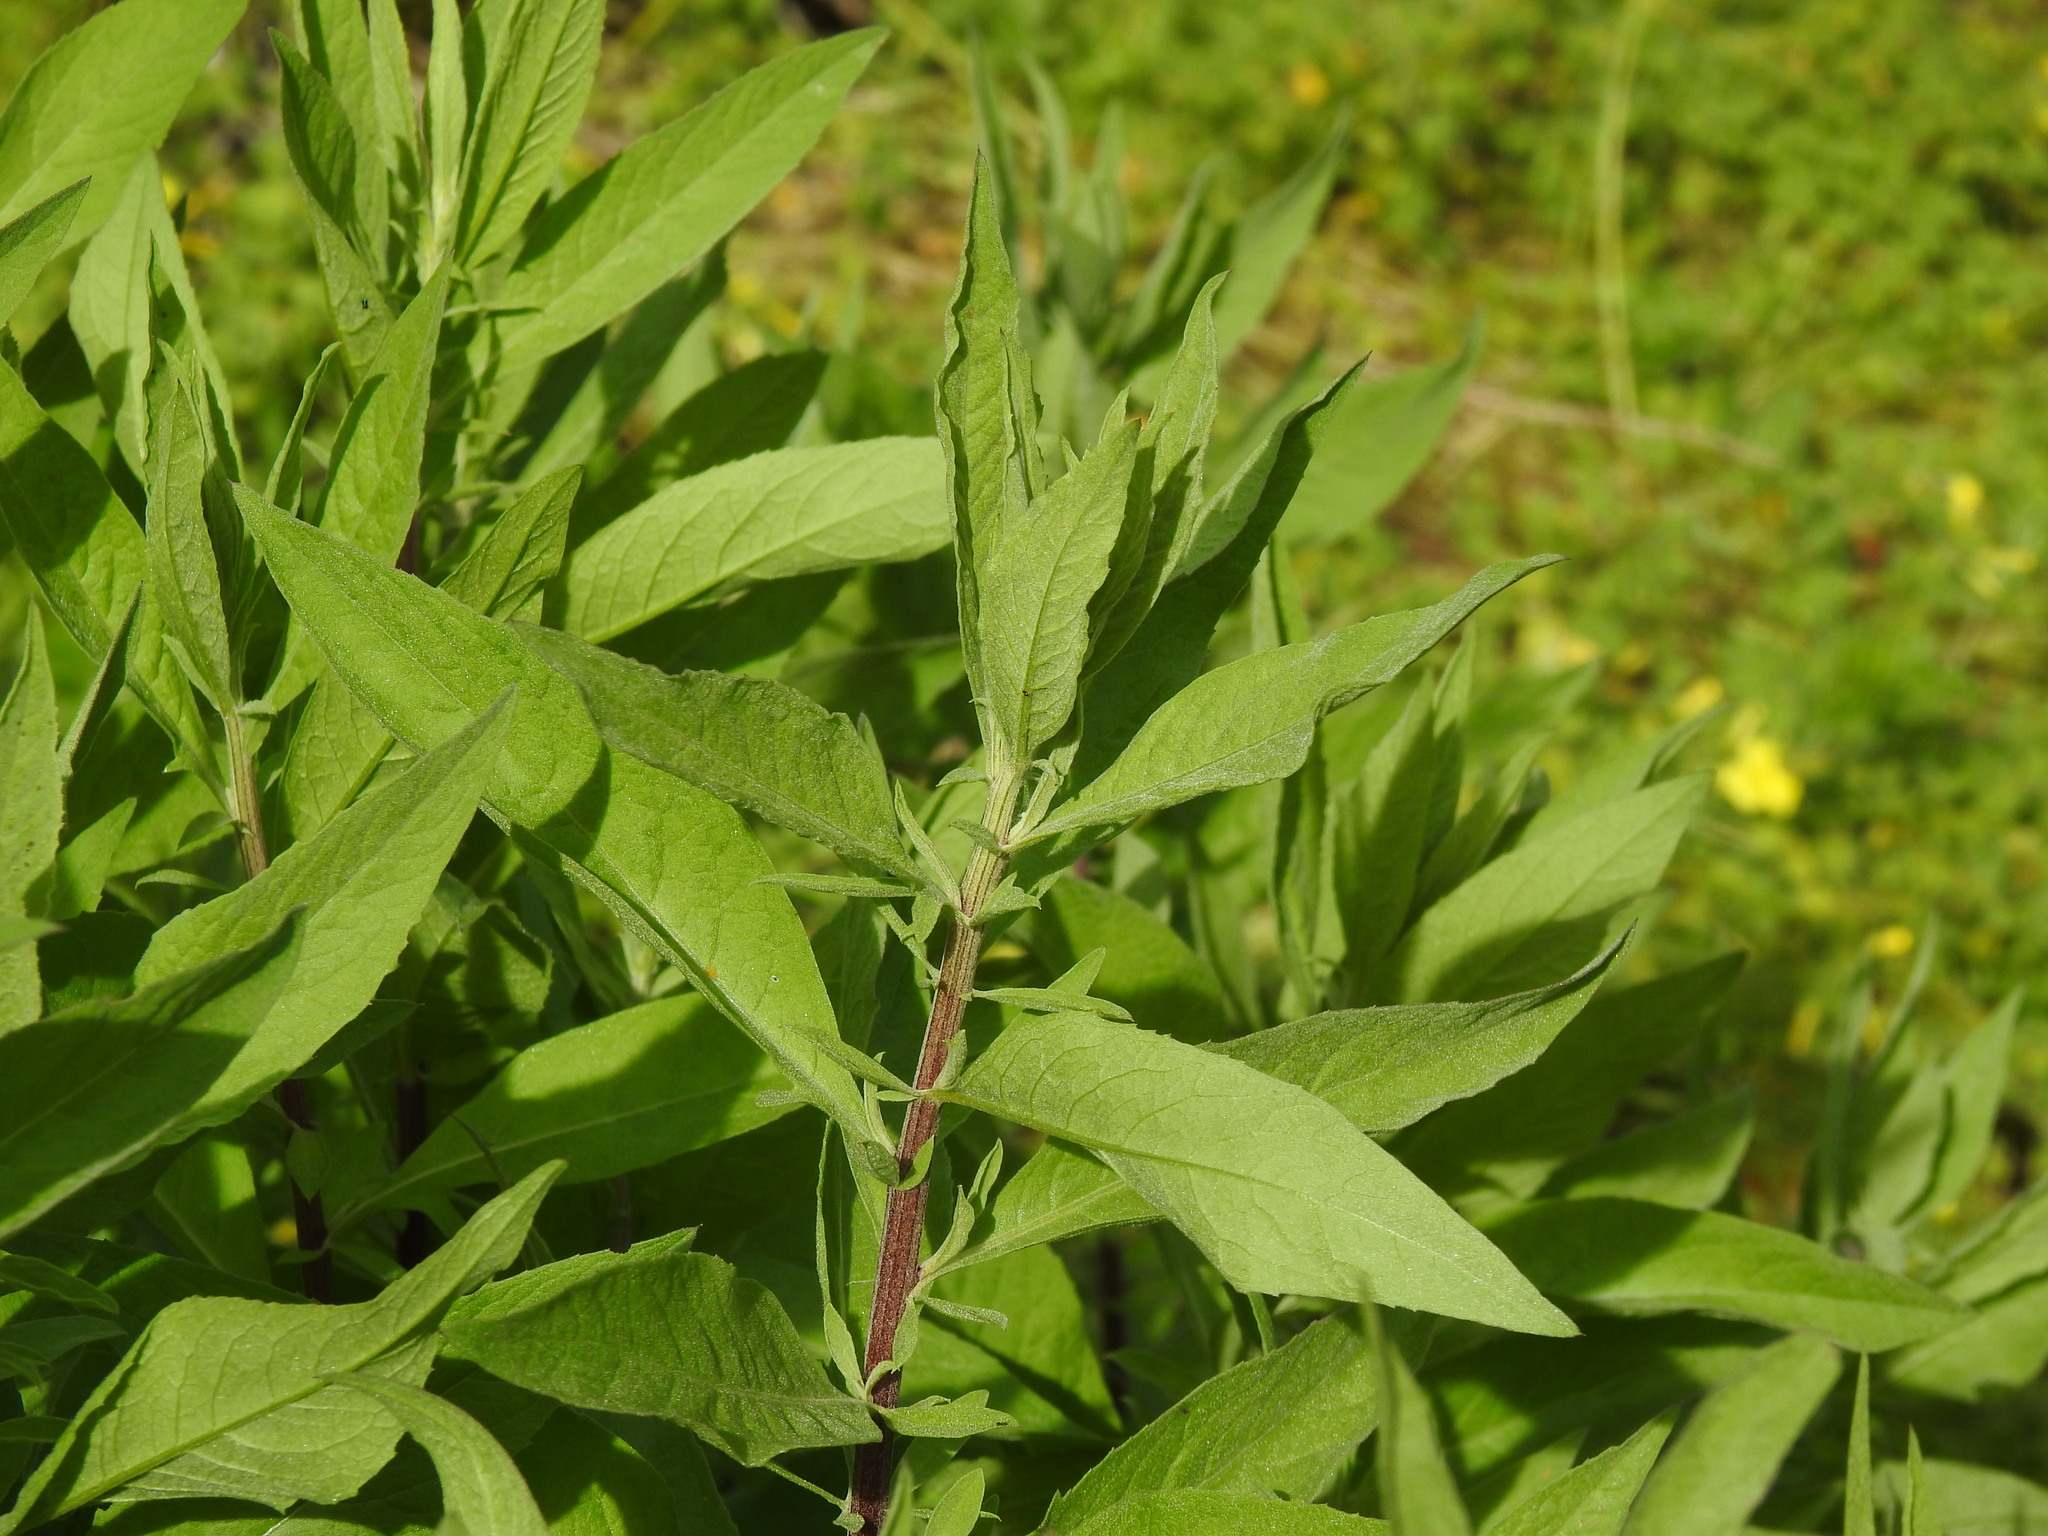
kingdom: Plantae
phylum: Tracheophyta
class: Magnoliopsida
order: Asterales
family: Asteraceae
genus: Cheirolophus
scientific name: Cheirolophus sempervirens
